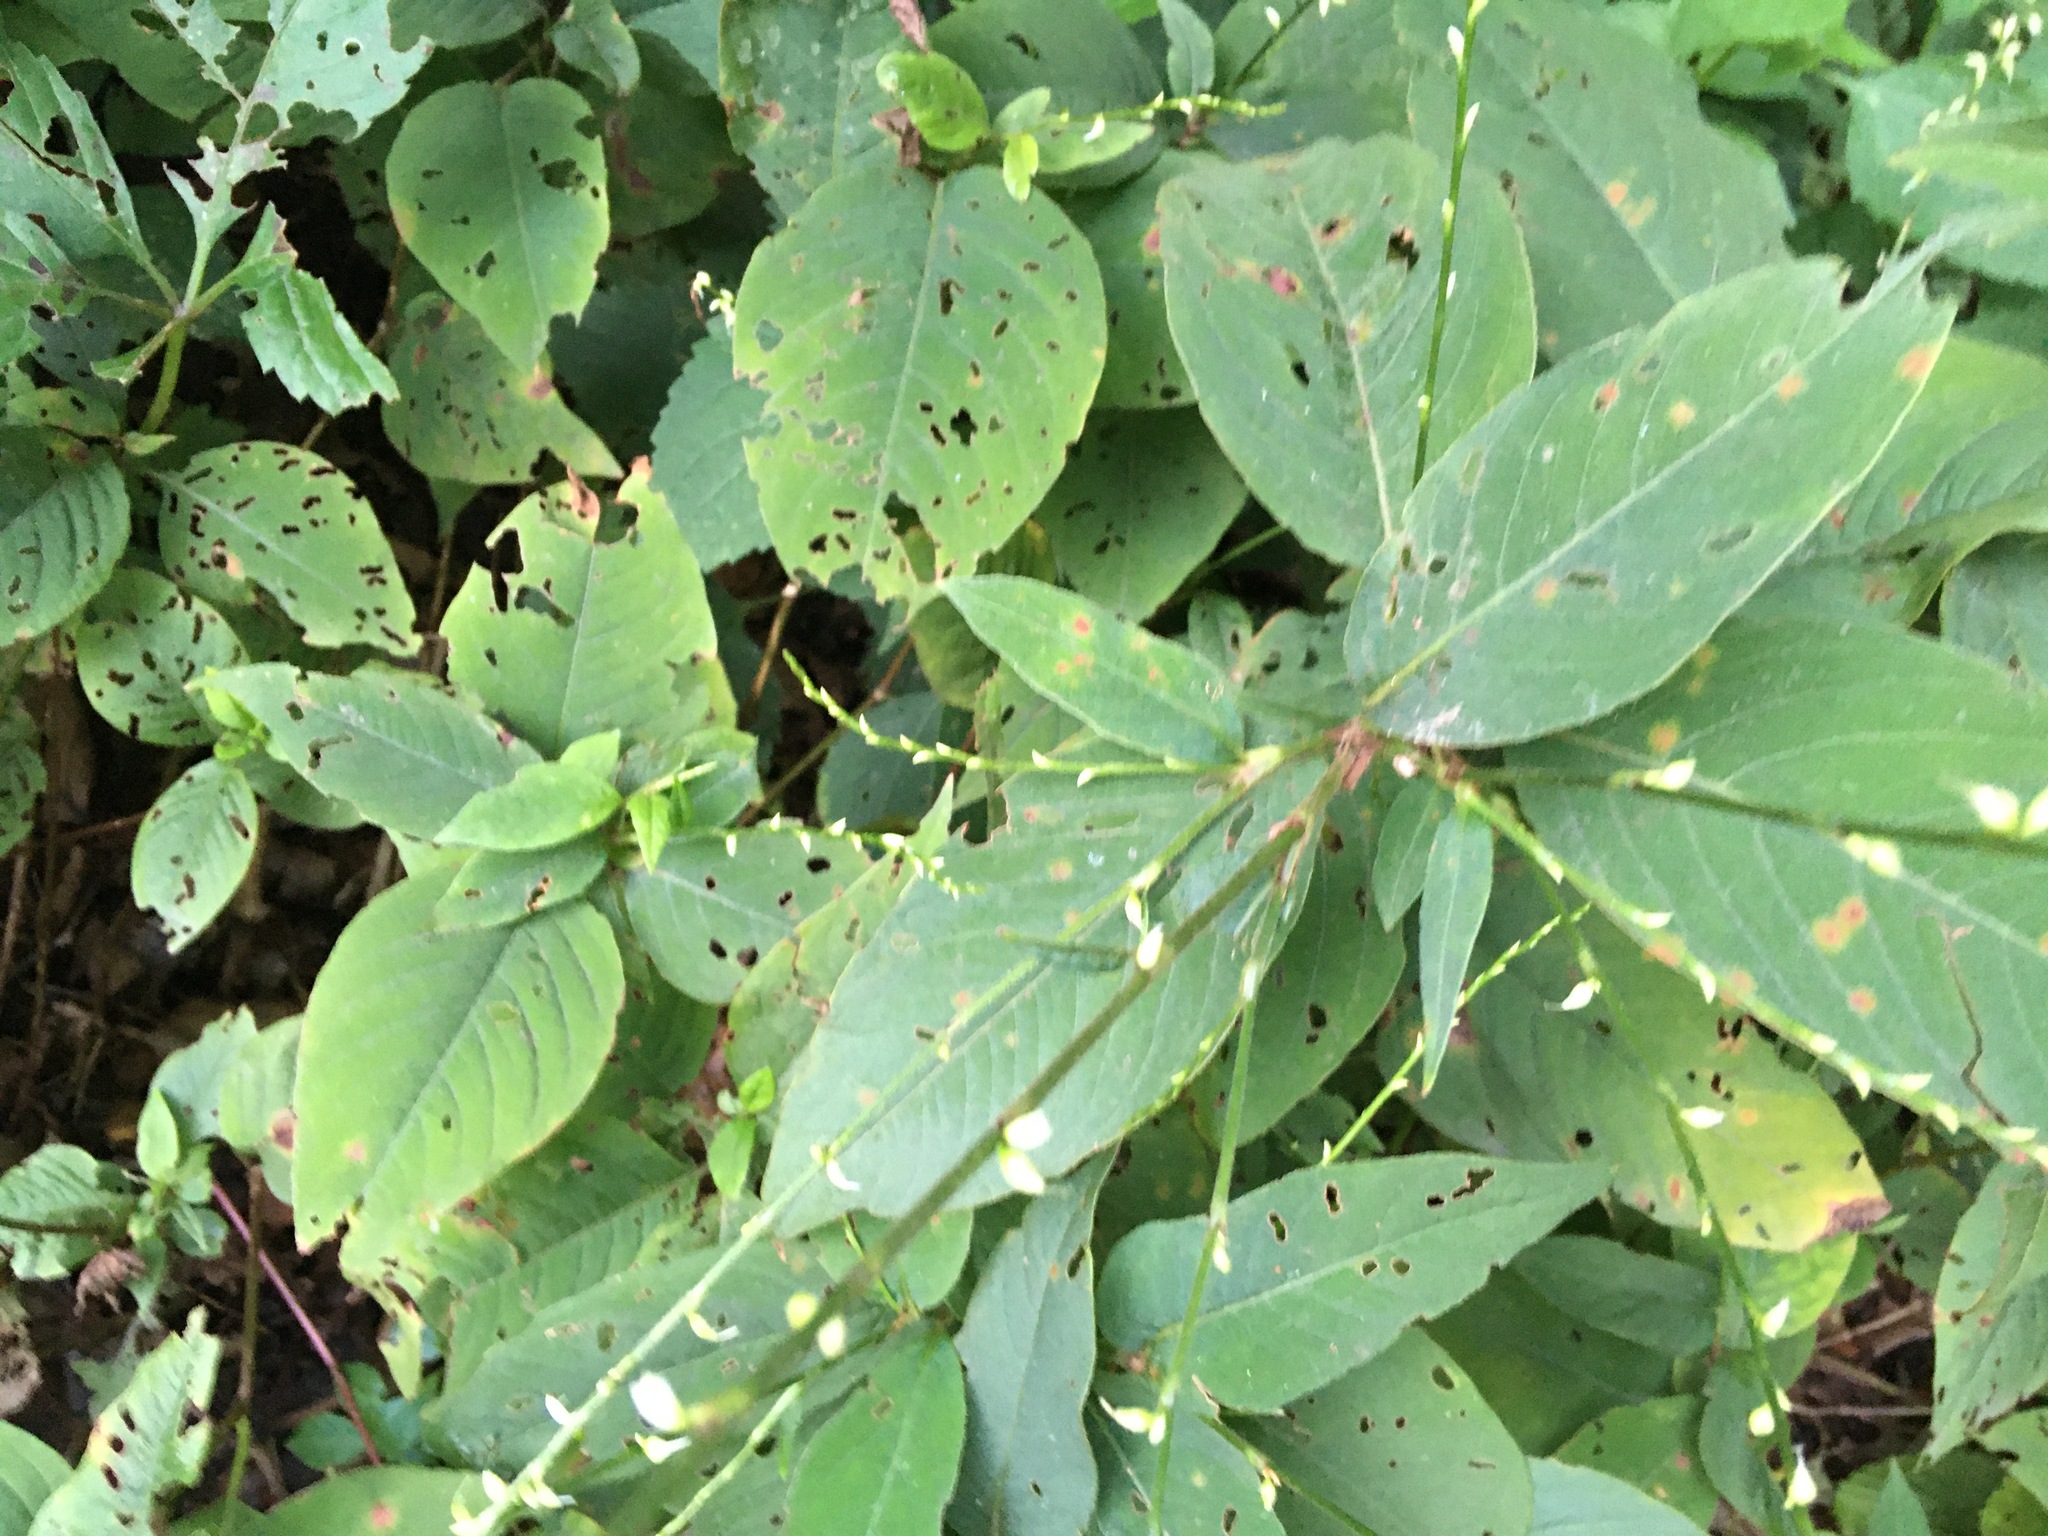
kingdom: Plantae
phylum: Tracheophyta
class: Magnoliopsida
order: Caryophyllales
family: Polygonaceae
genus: Persicaria
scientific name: Persicaria virginiana
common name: Jumpseed
